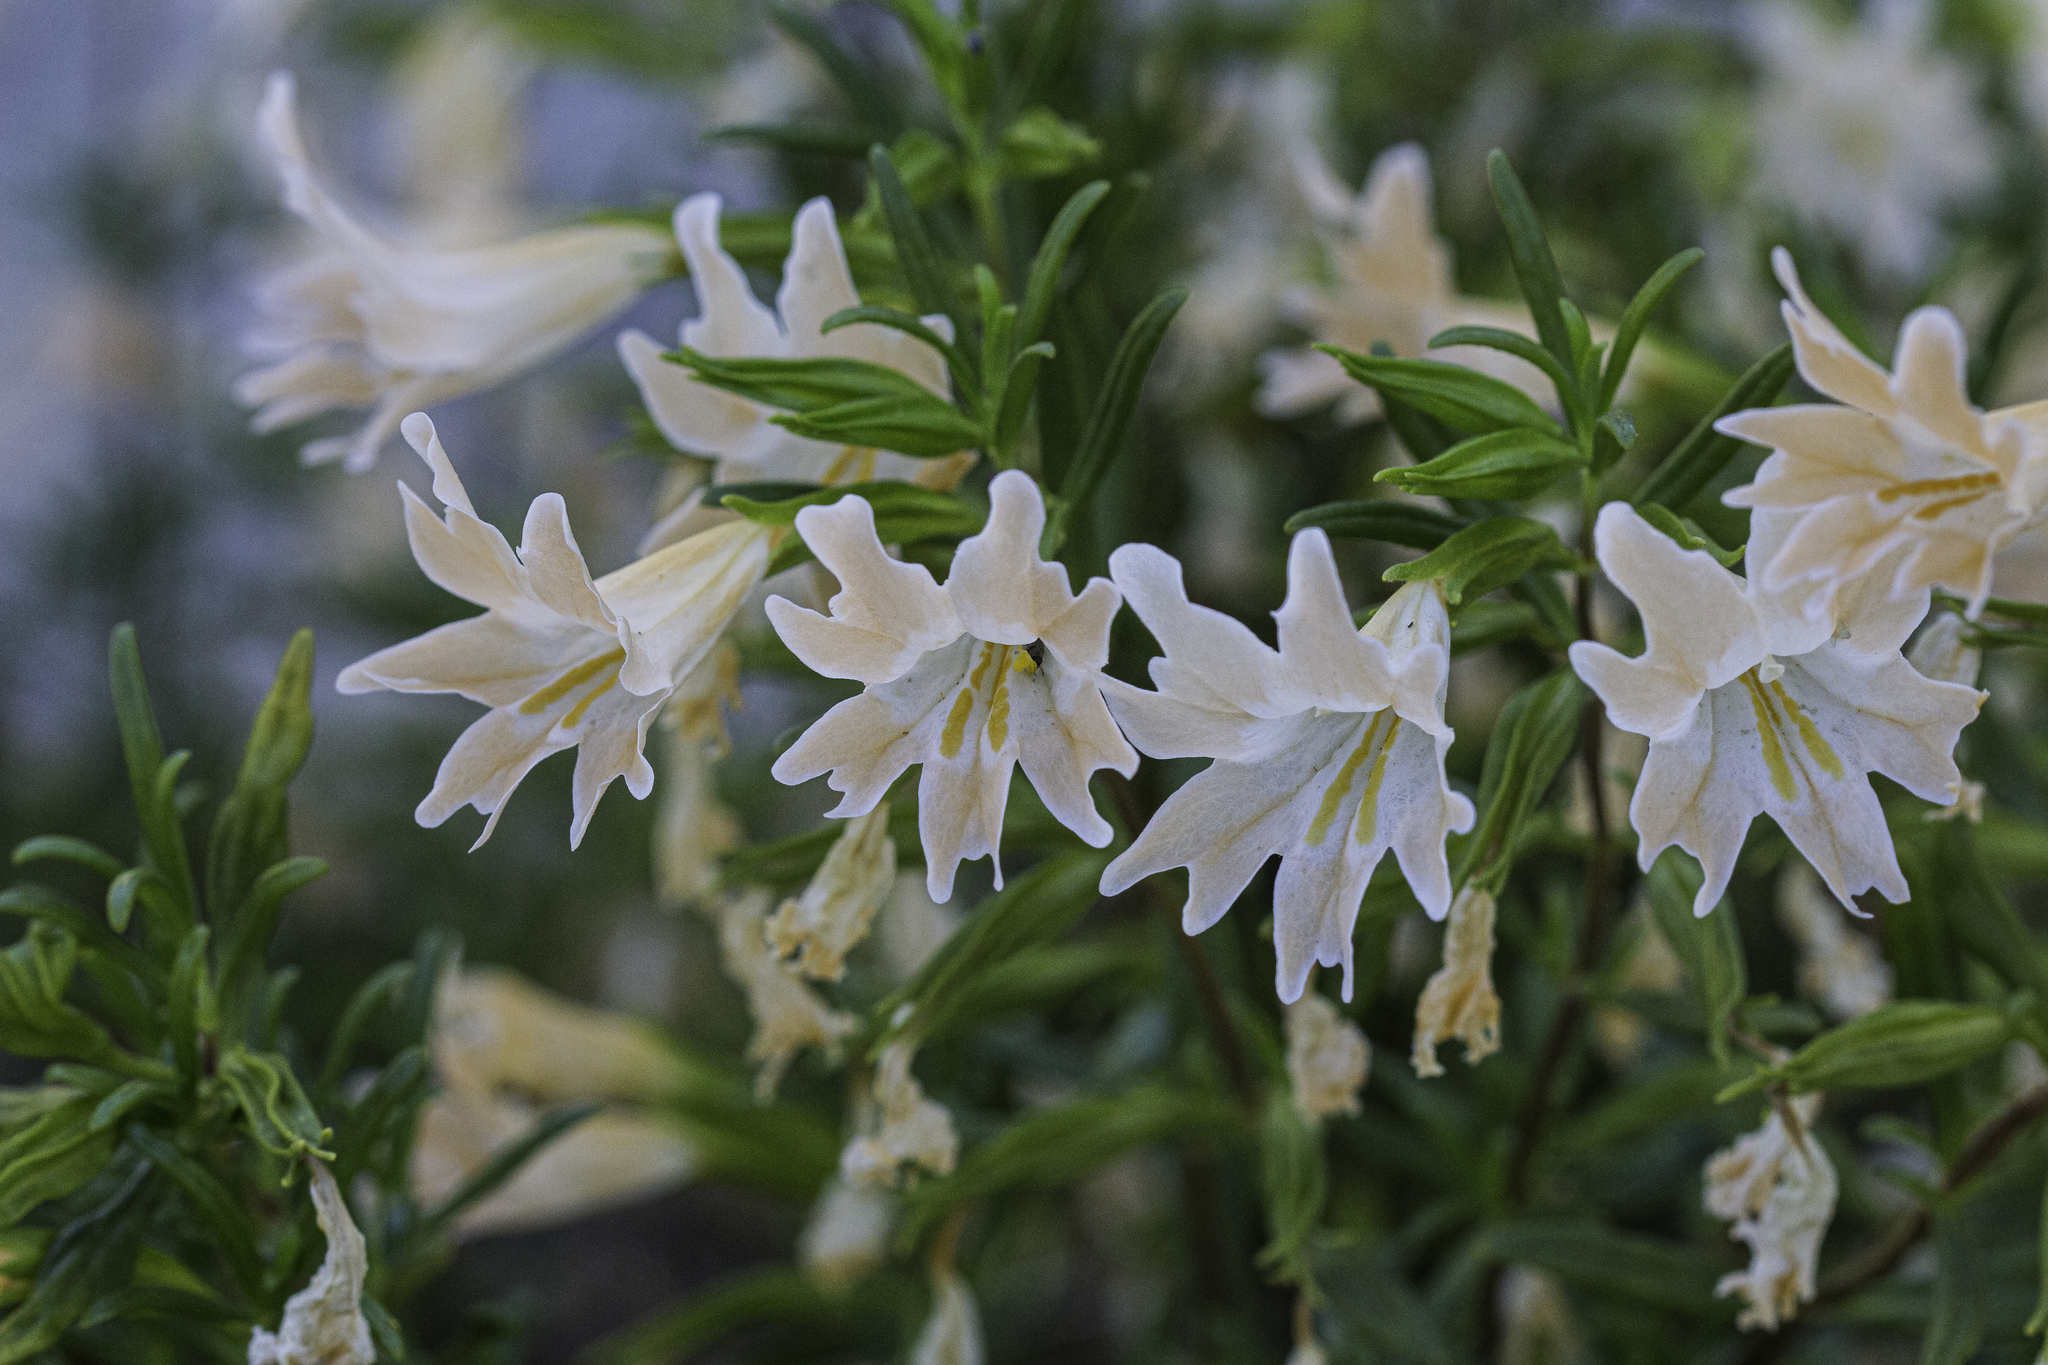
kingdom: Plantae
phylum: Tracheophyta
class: Magnoliopsida
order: Lamiales
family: Phrymaceae
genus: Diplacus
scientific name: Diplacus linearis
